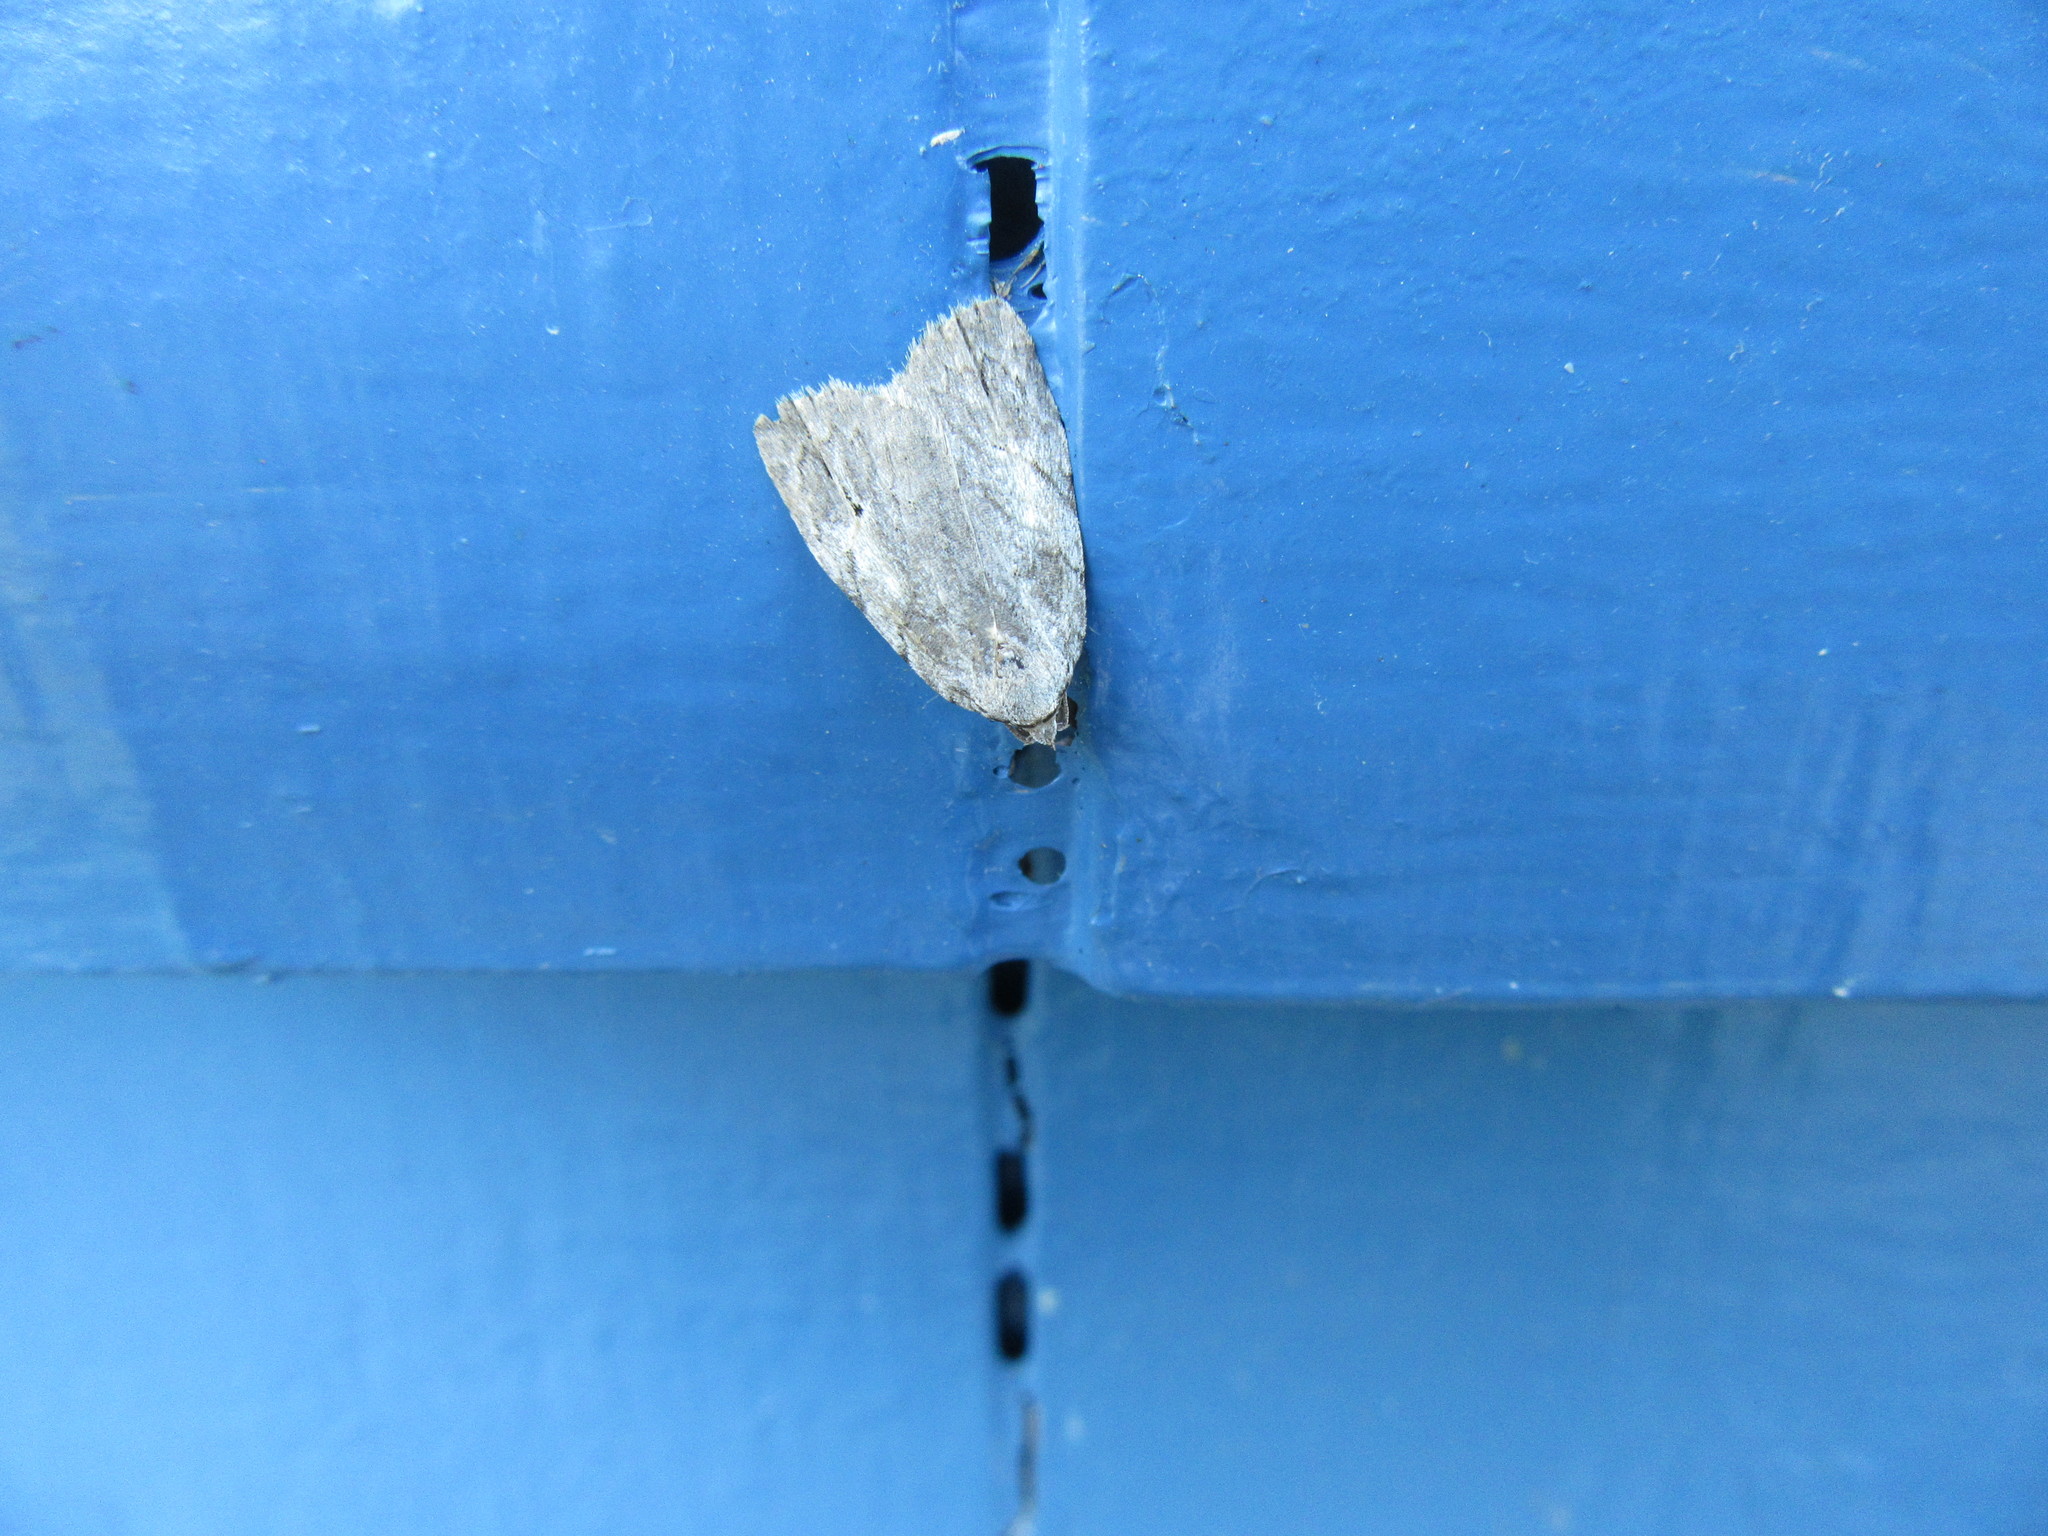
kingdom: Animalia
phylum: Arthropoda
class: Insecta
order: Lepidoptera
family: Noctuidae
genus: Balsa
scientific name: Balsa labecula
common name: White-blotched balsa moth
